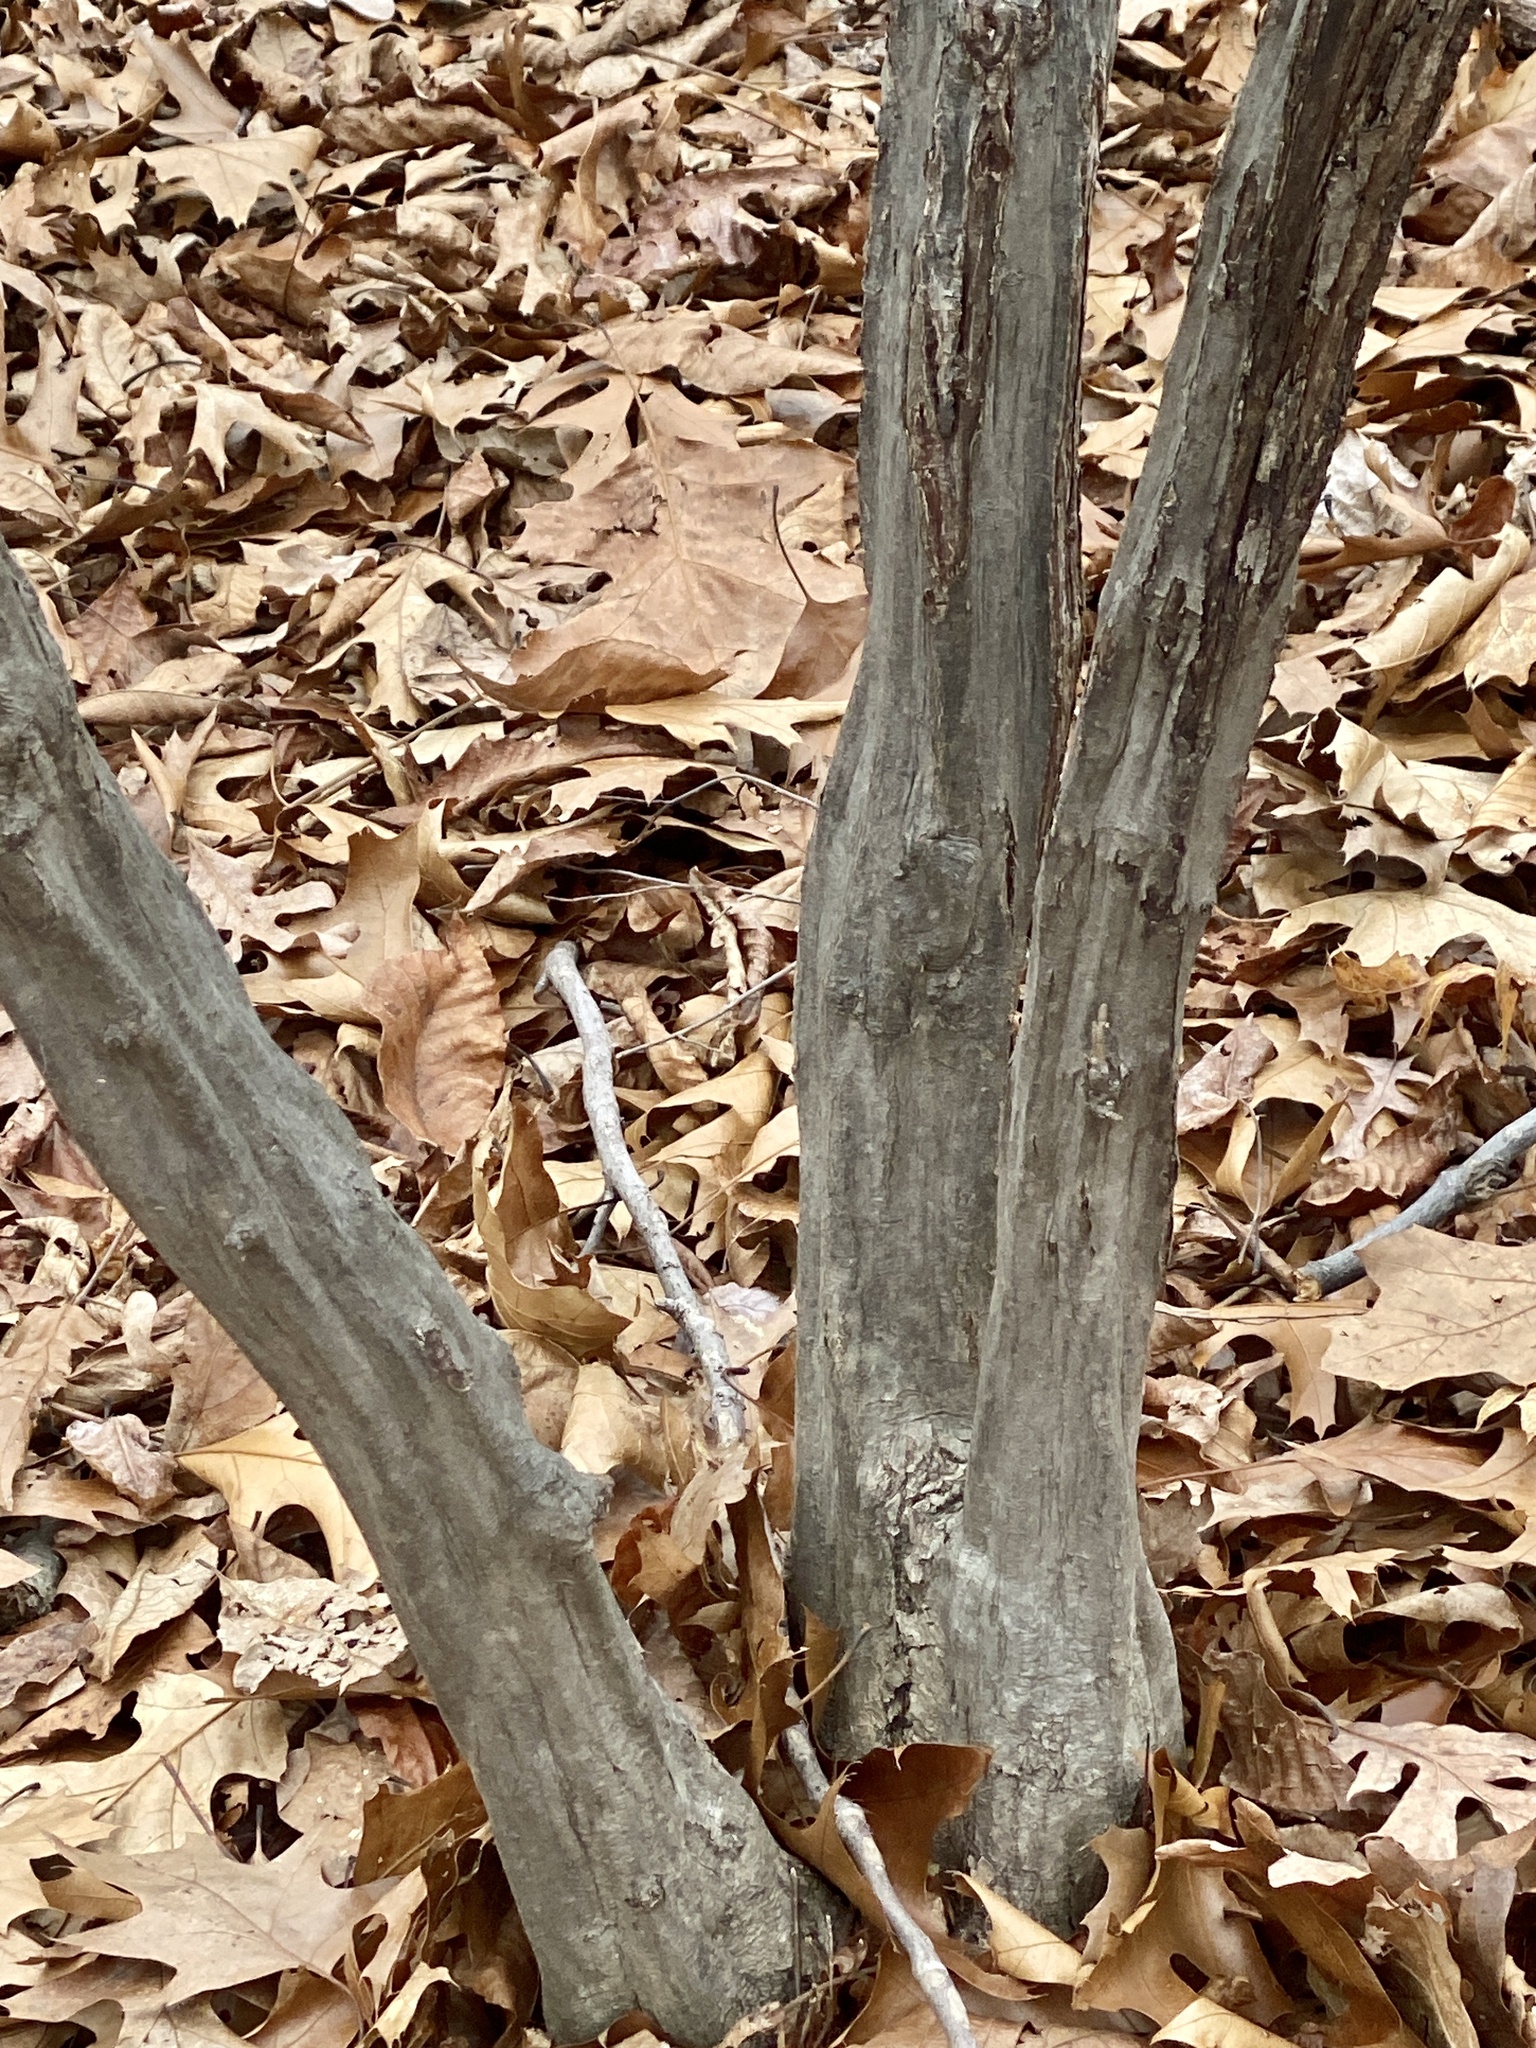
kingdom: Plantae
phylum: Tracheophyta
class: Magnoliopsida
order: Fagales
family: Betulaceae
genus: Carpinus
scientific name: Carpinus caroliniana
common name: American hornbeam
